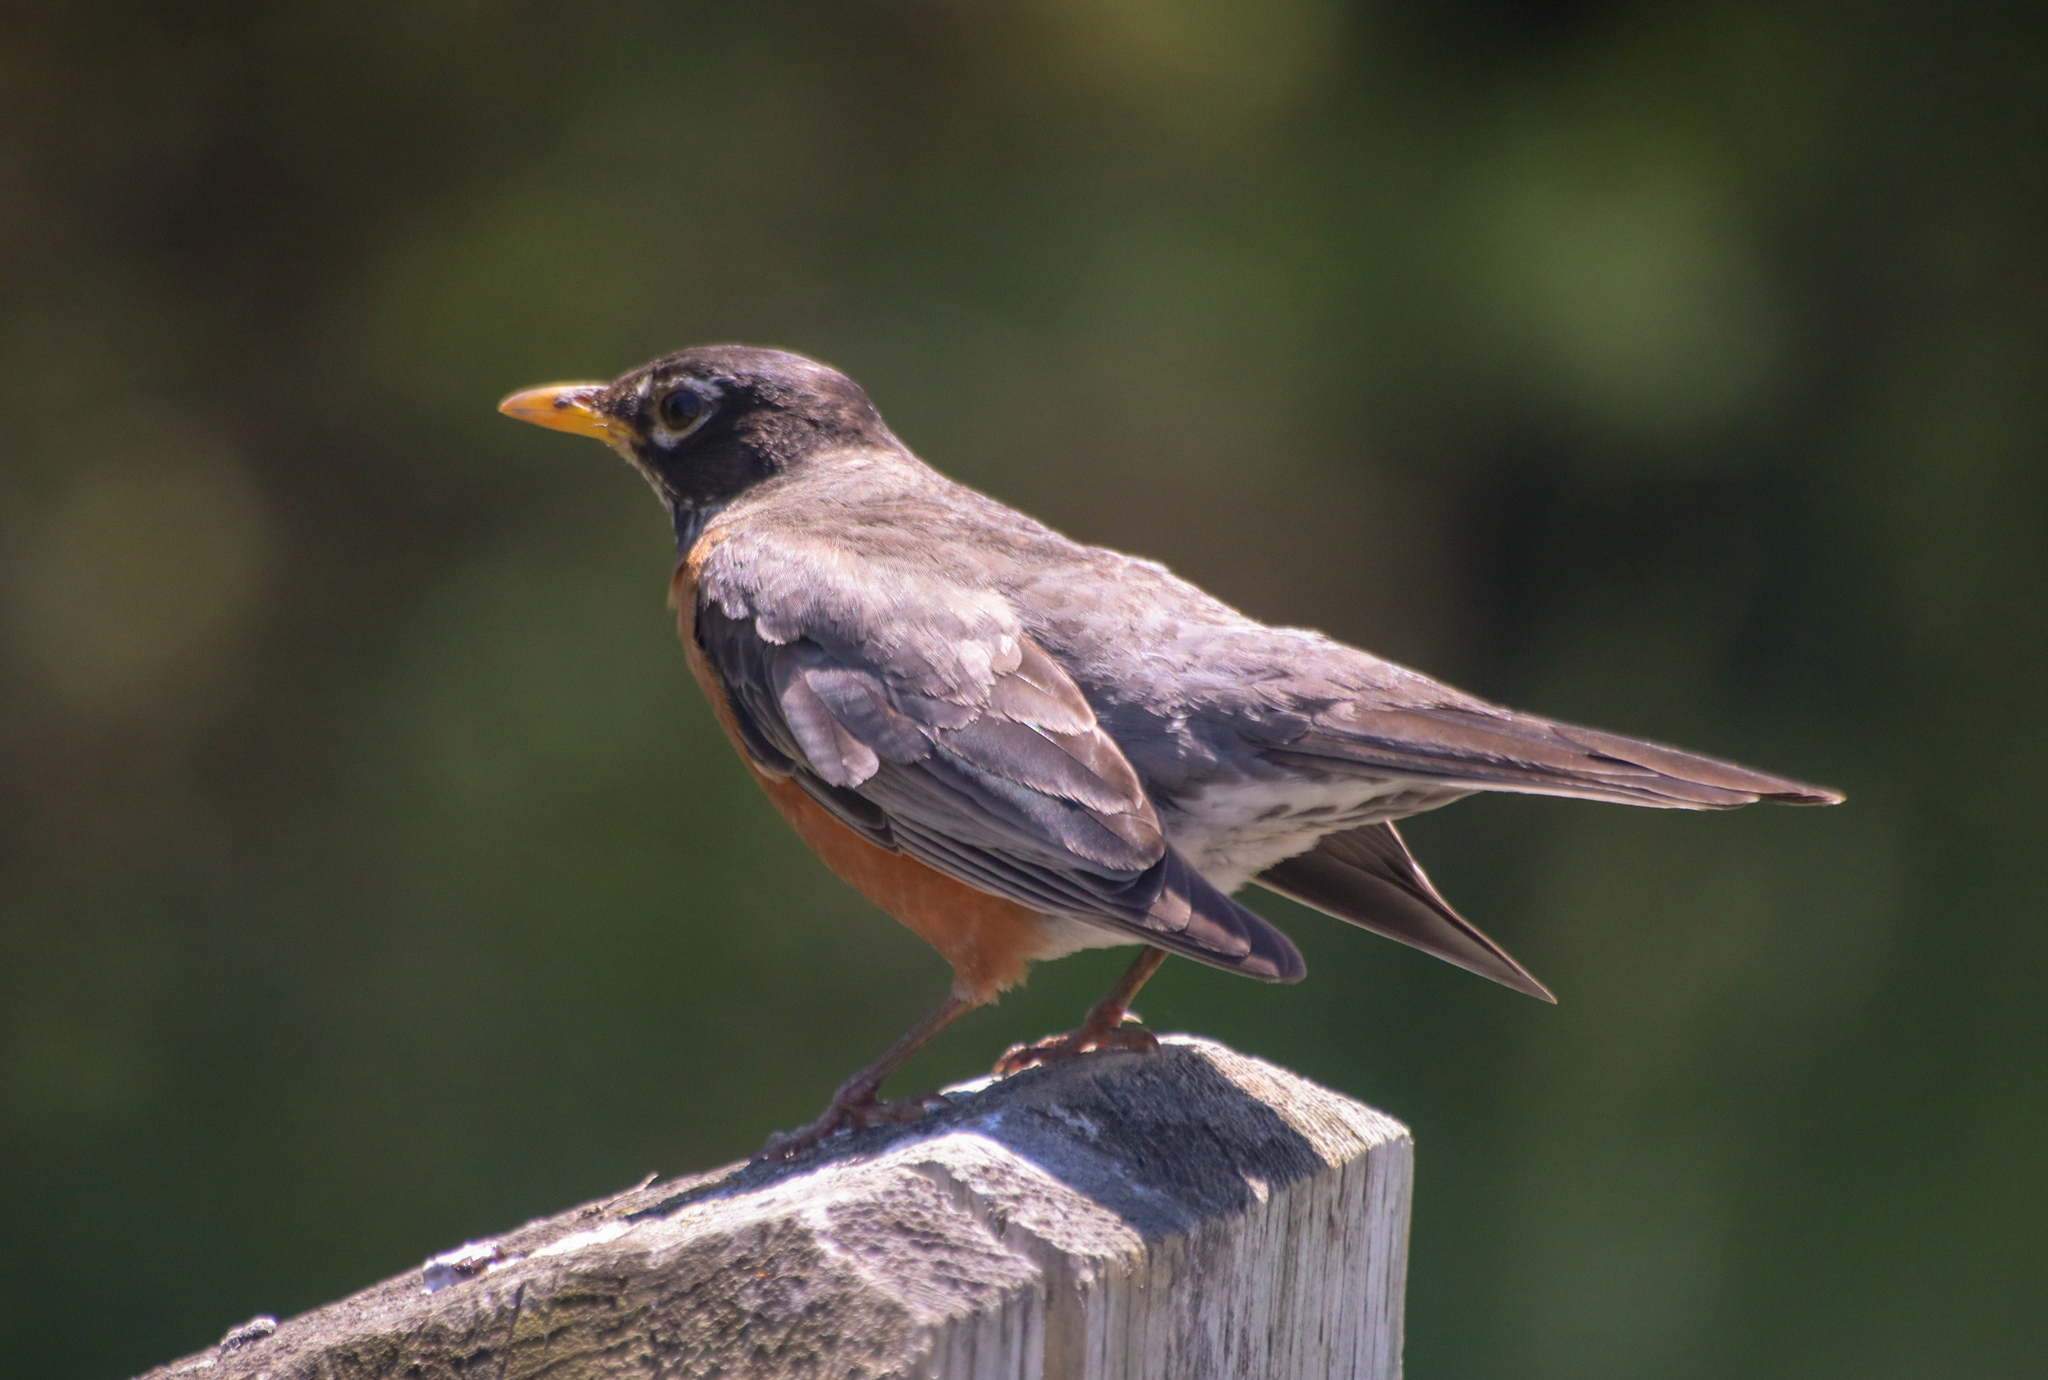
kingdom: Animalia
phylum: Chordata
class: Aves
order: Passeriformes
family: Turdidae
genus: Turdus
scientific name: Turdus migratorius
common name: American robin
